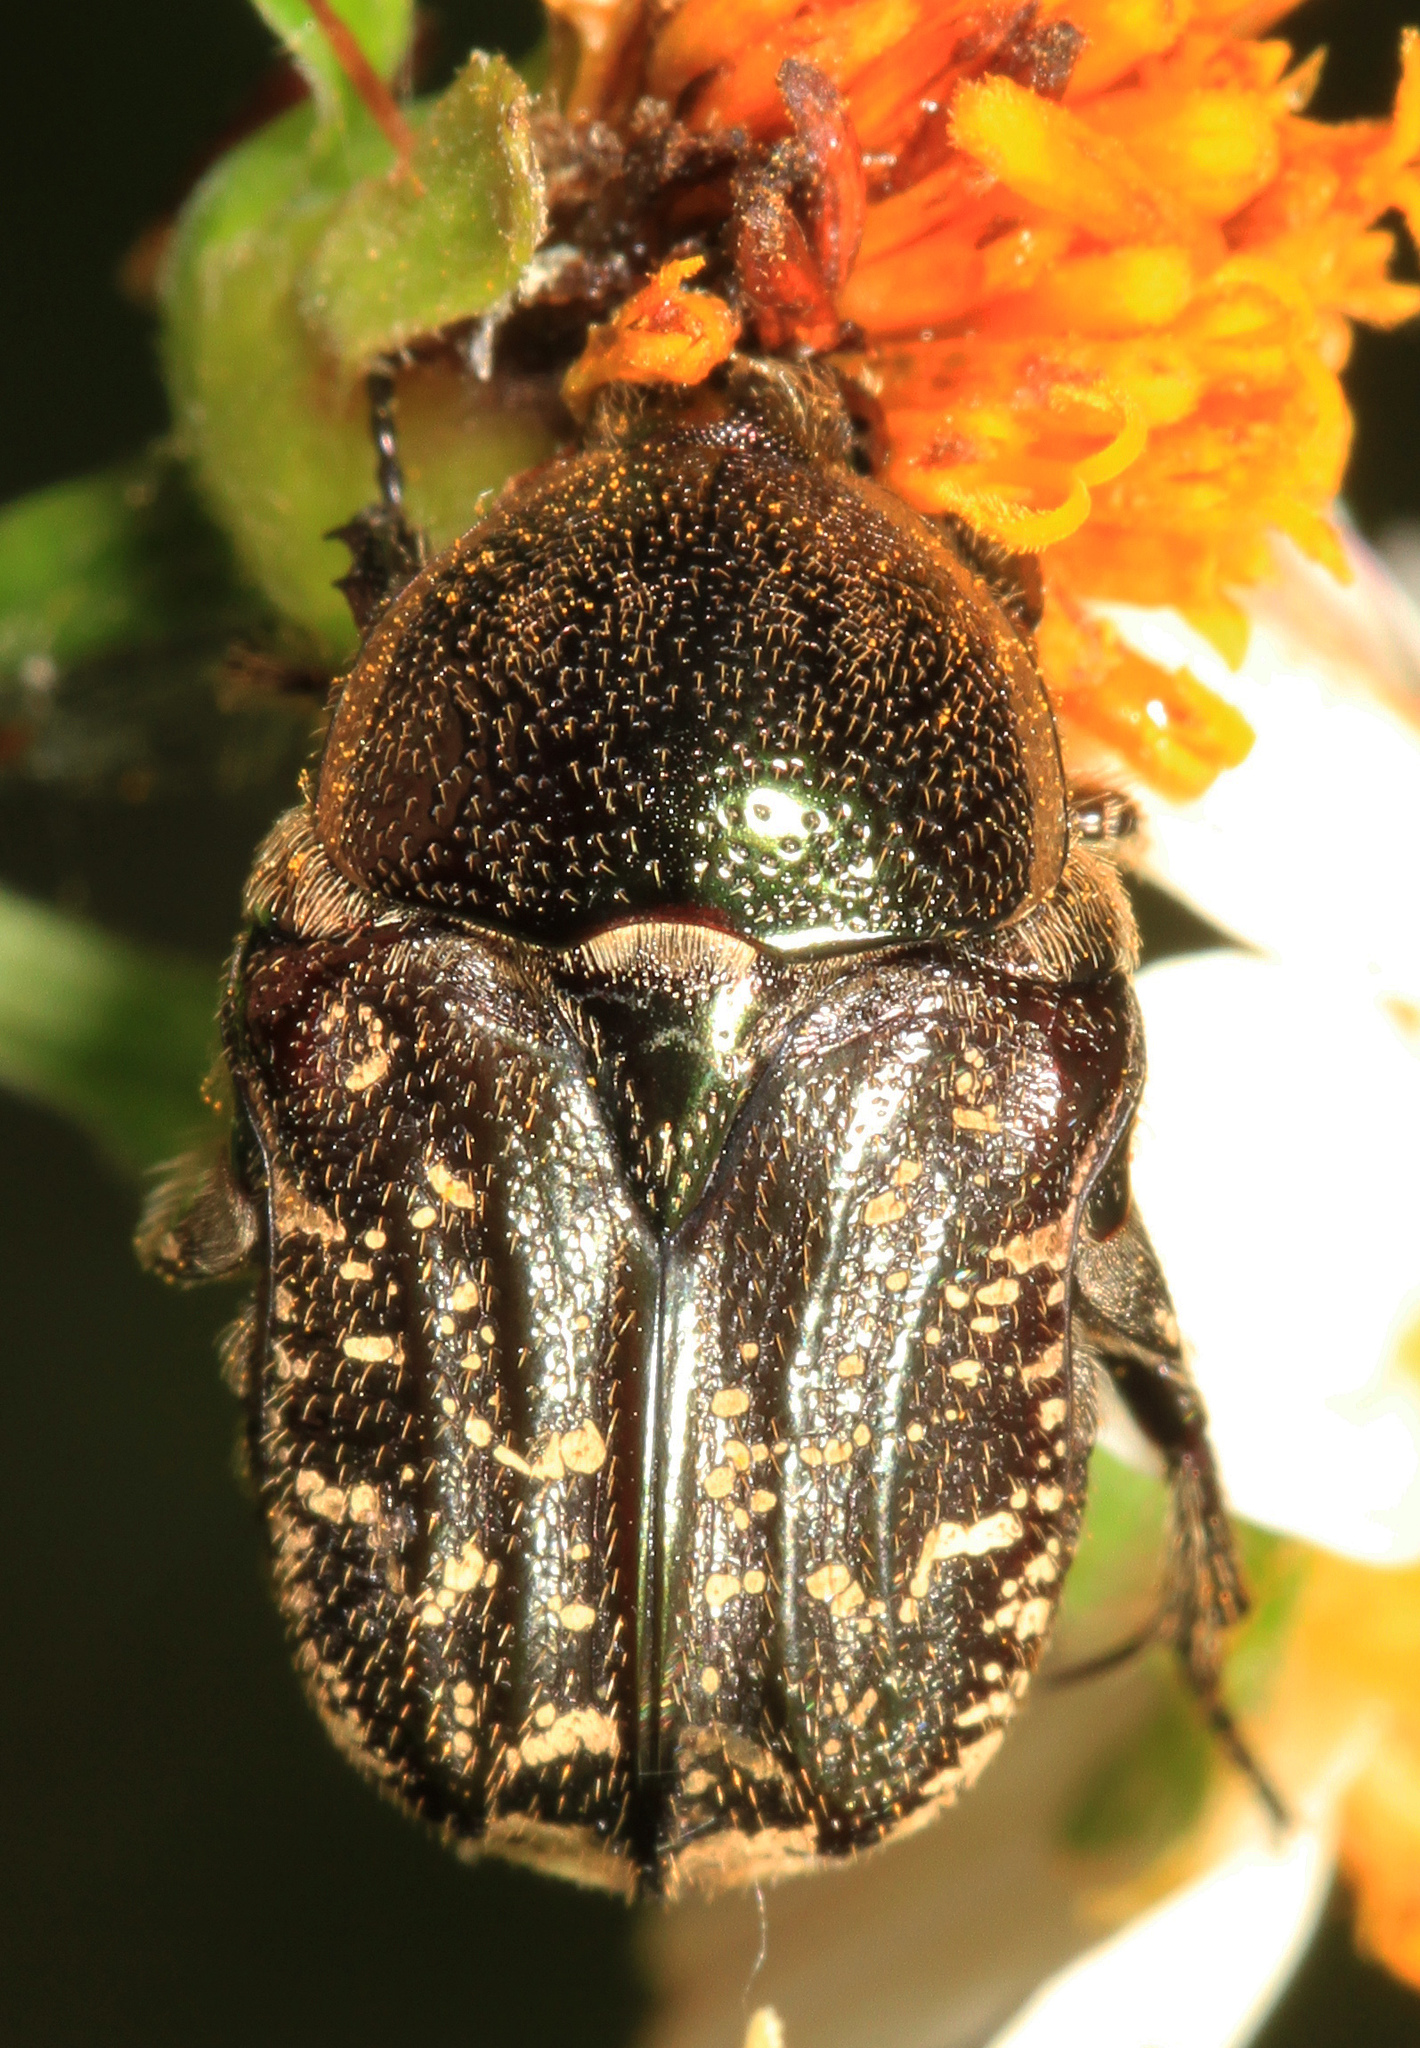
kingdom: Animalia
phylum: Arthropoda
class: Insecta
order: Coleoptera
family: Scarabaeidae
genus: Euphoria
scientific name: Euphoria sepulcralis
